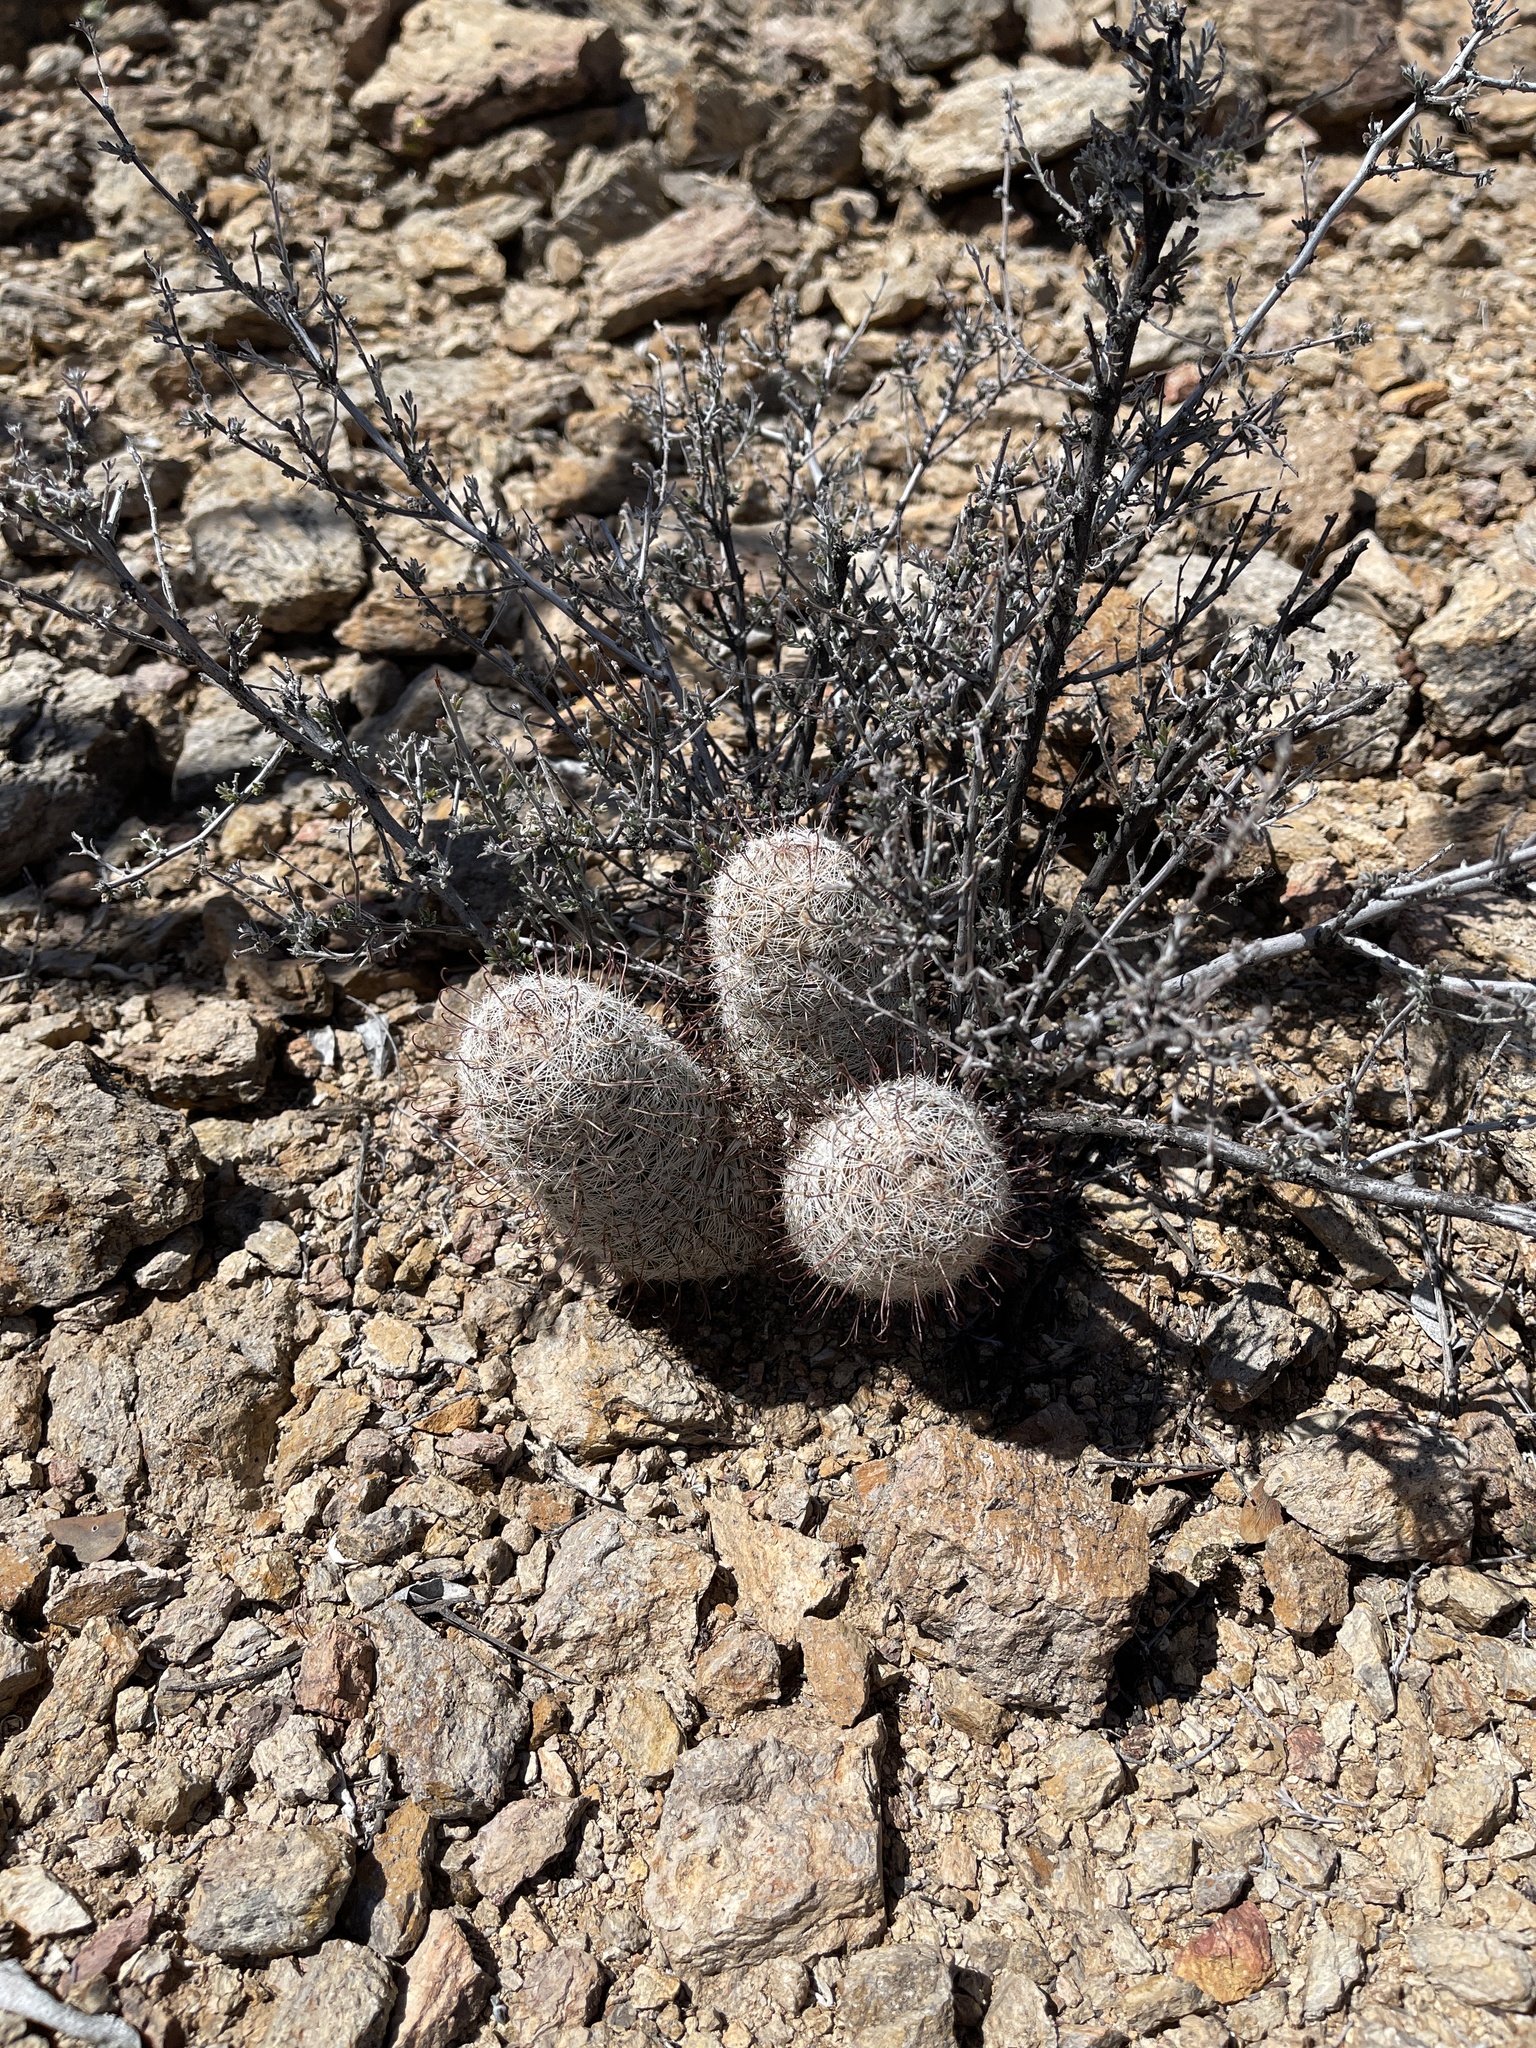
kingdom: Plantae
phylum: Tracheophyta
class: Magnoliopsida
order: Caryophyllales
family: Cactaceae
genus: Cochemiea
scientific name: Cochemiea grahamii
